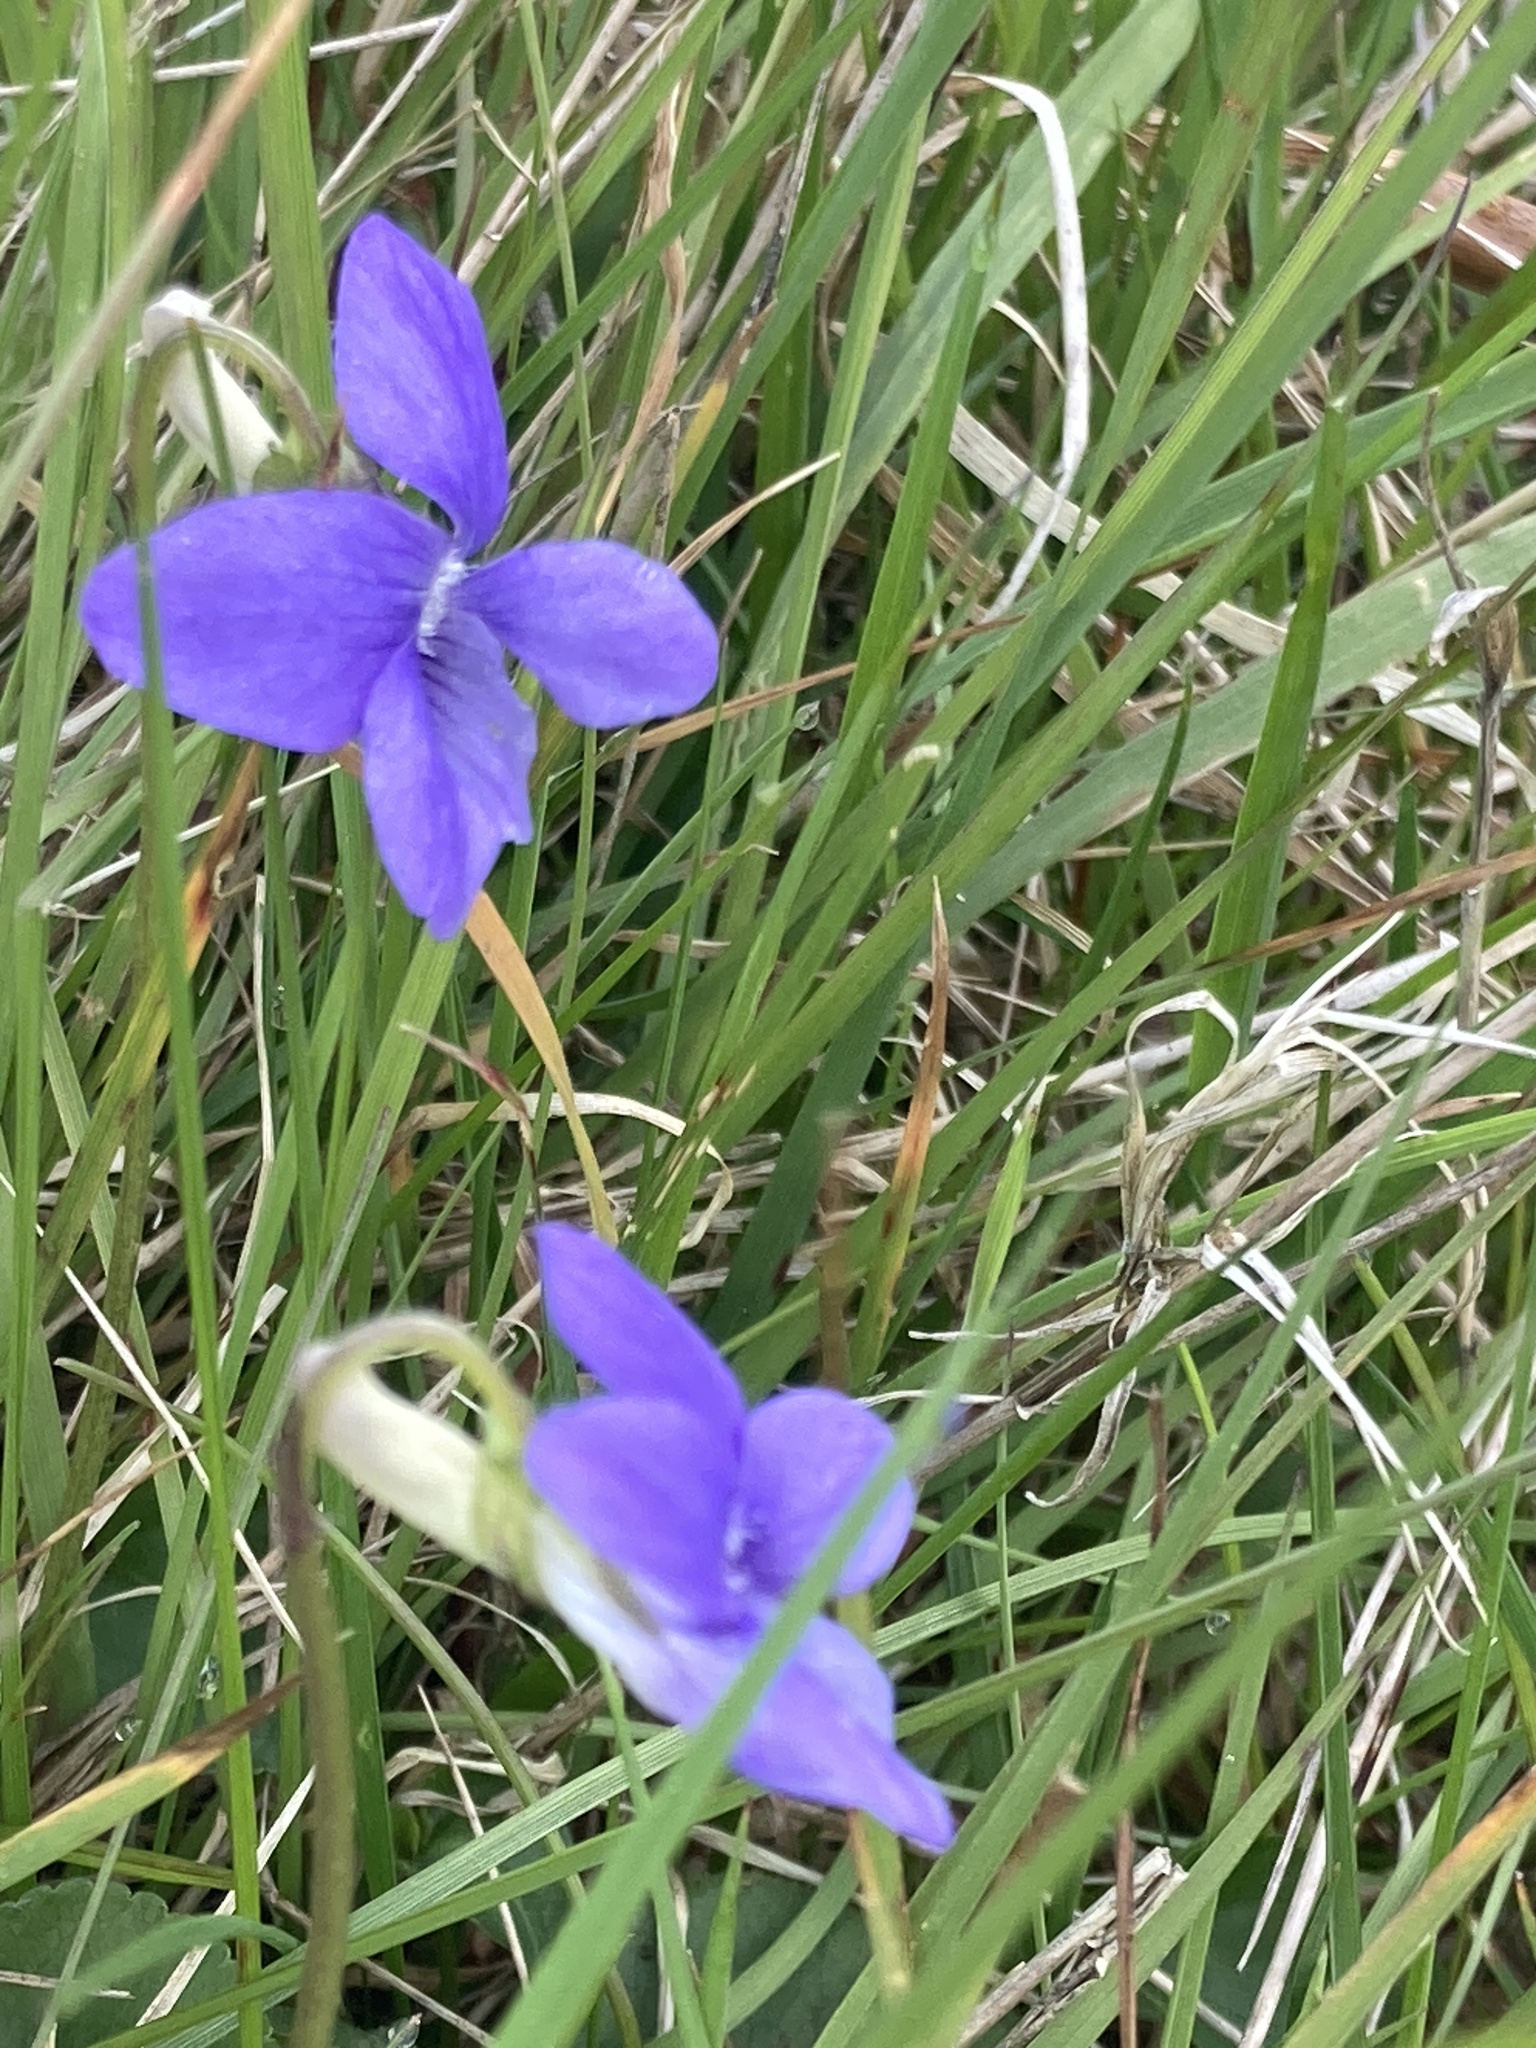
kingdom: Plantae
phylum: Tracheophyta
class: Magnoliopsida
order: Malpighiales
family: Violaceae
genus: Viola
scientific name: Viola riviniana
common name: Common dog-violet
